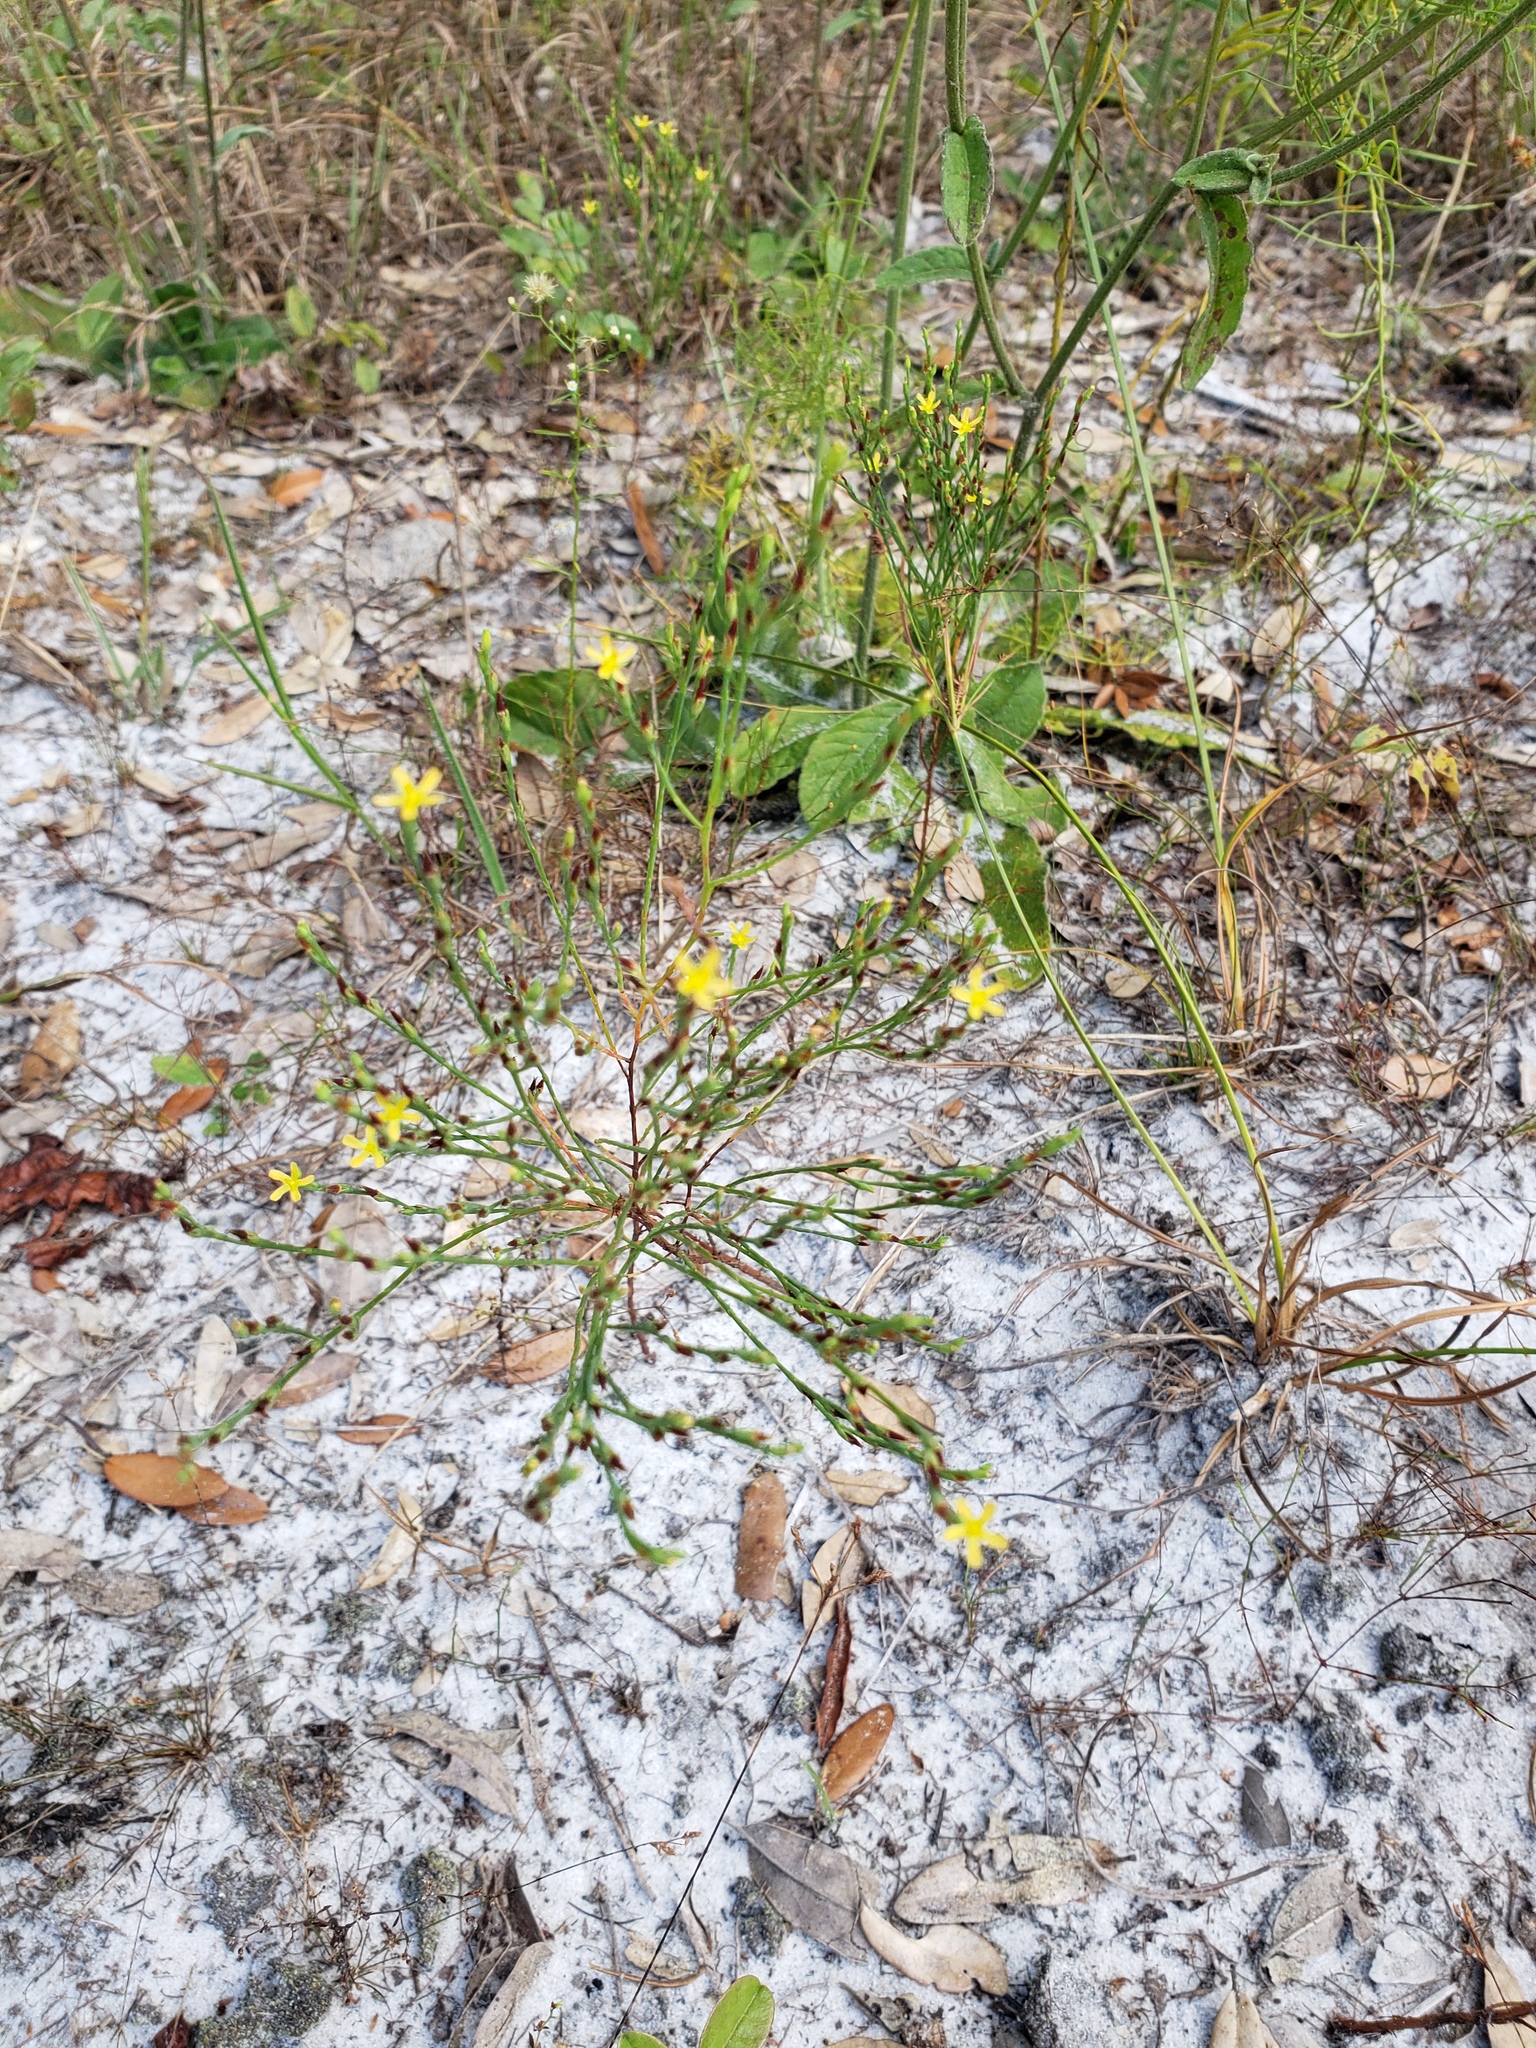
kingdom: Plantae
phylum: Tracheophyta
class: Magnoliopsida
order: Malpighiales
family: Hypericaceae
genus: Hypericum
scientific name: Hypericum gentianoides
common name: Gentian-leaved st. john's-wort
